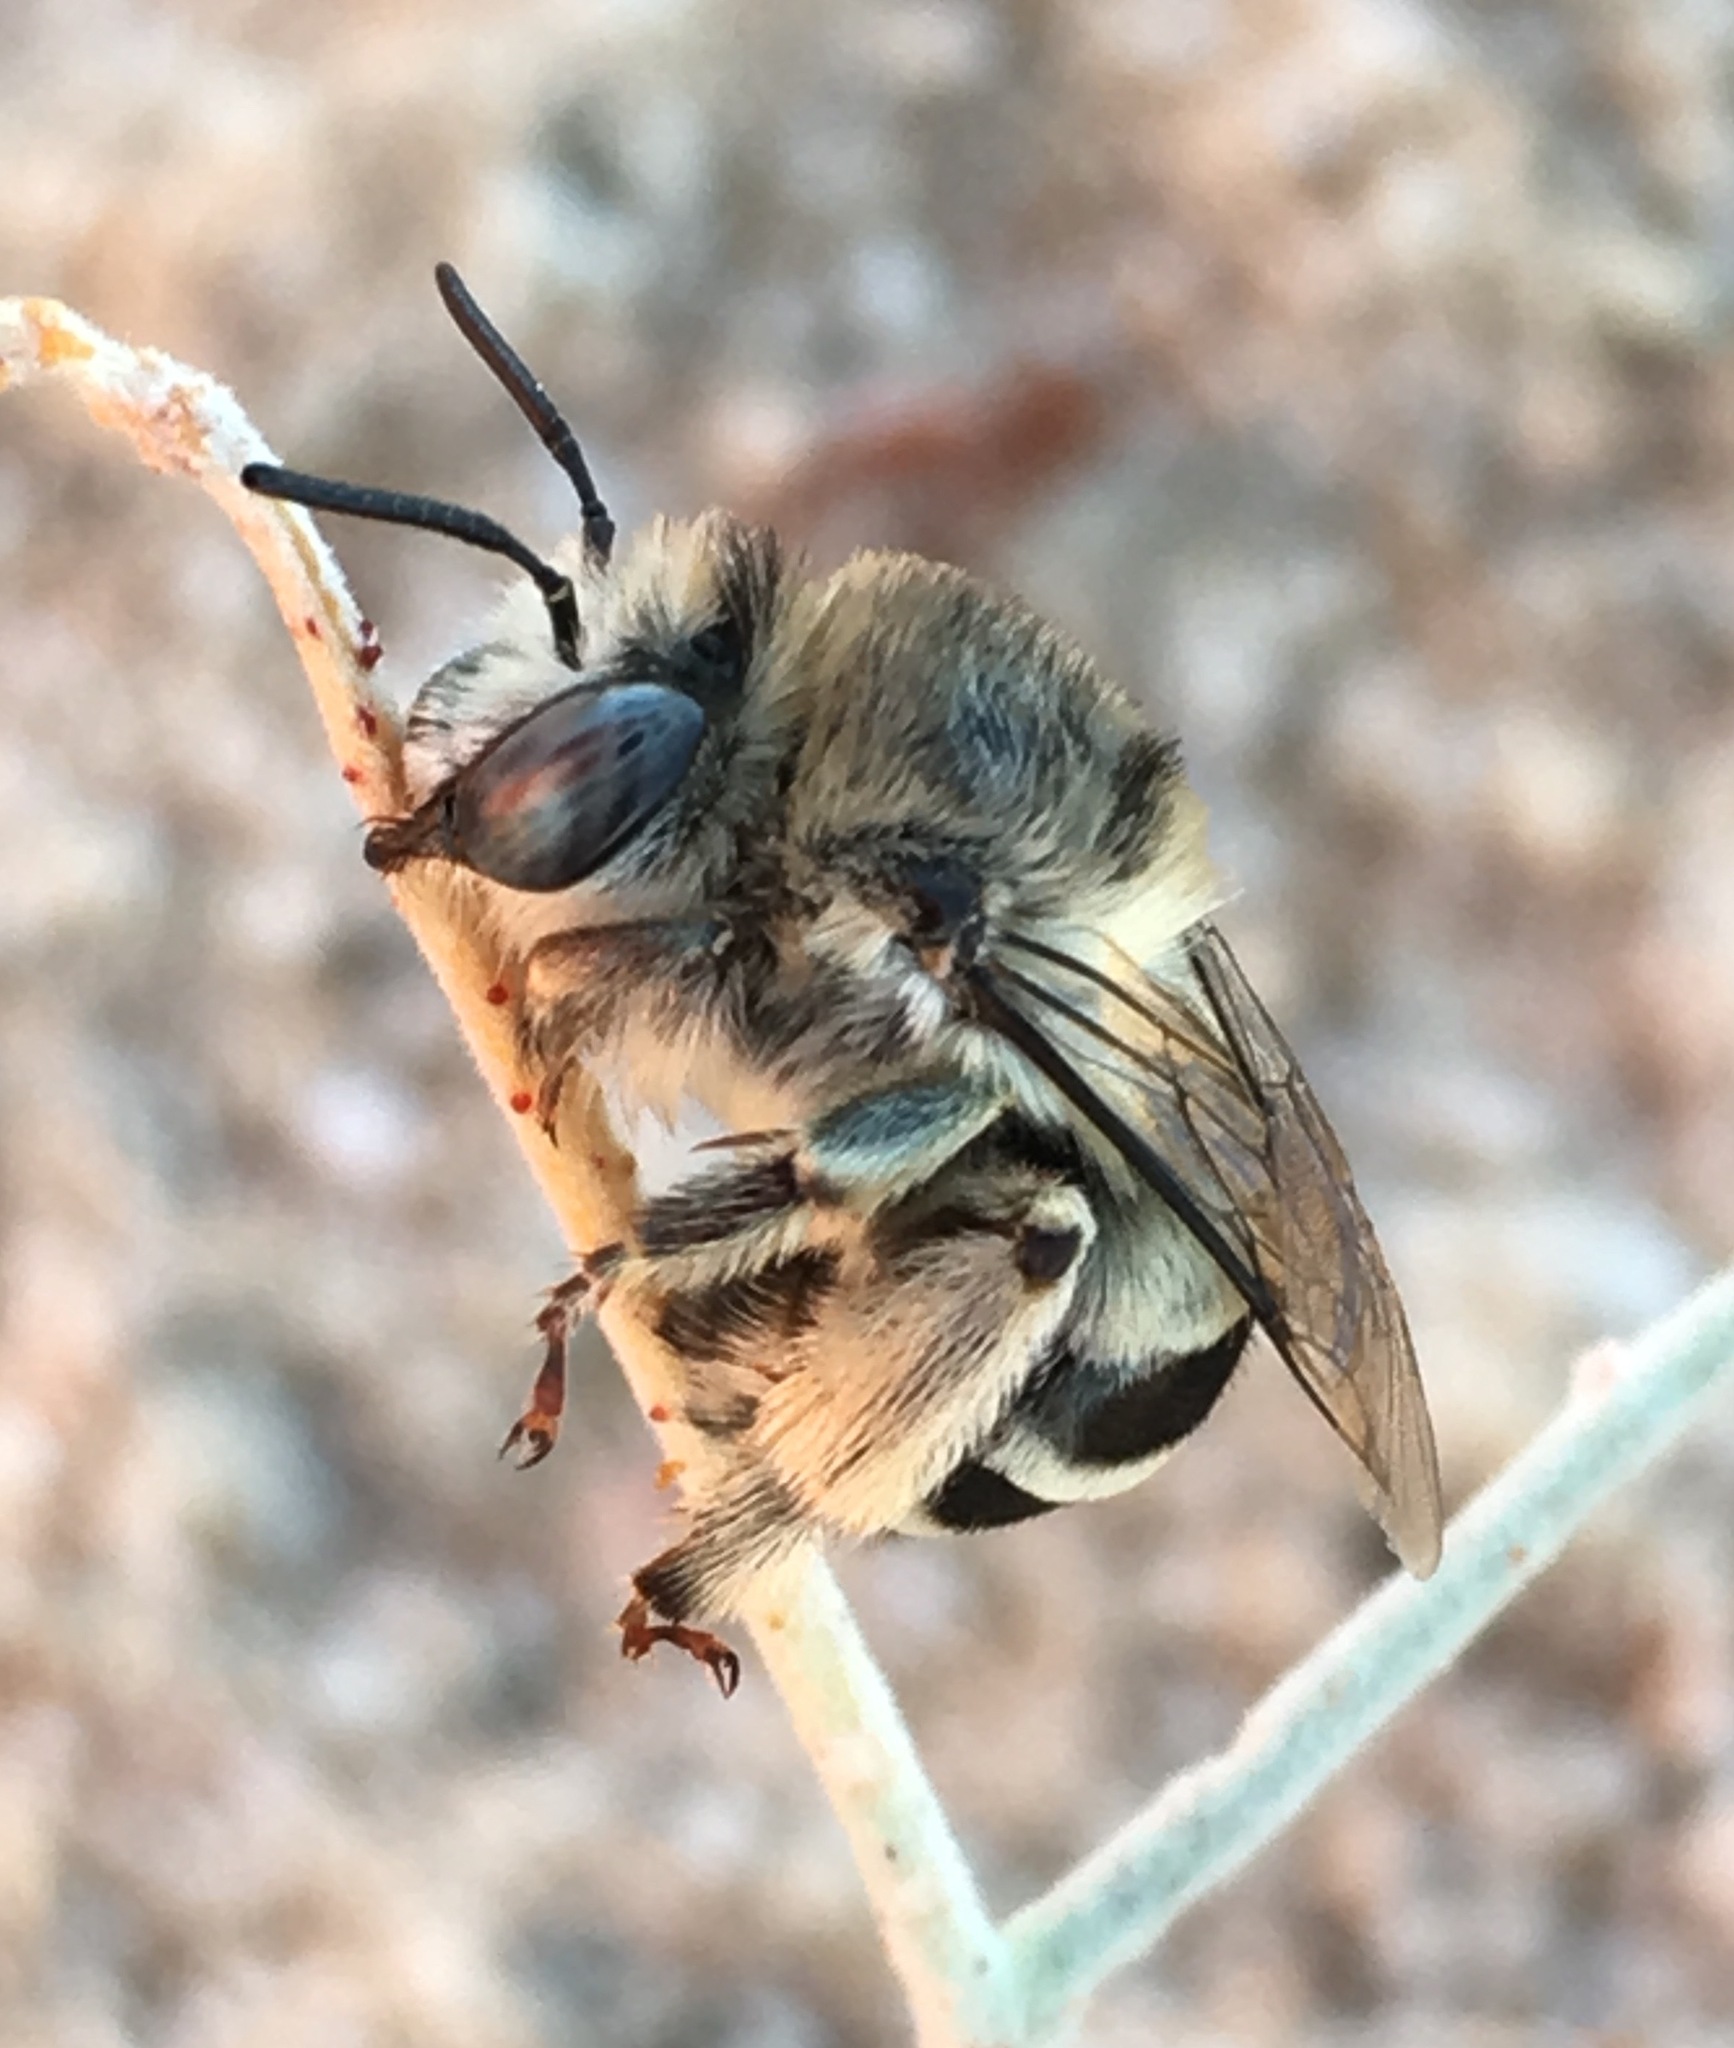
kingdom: Animalia
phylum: Arthropoda
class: Insecta
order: Hymenoptera
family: Apidae
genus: Anthophora
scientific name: Anthophora urbana
